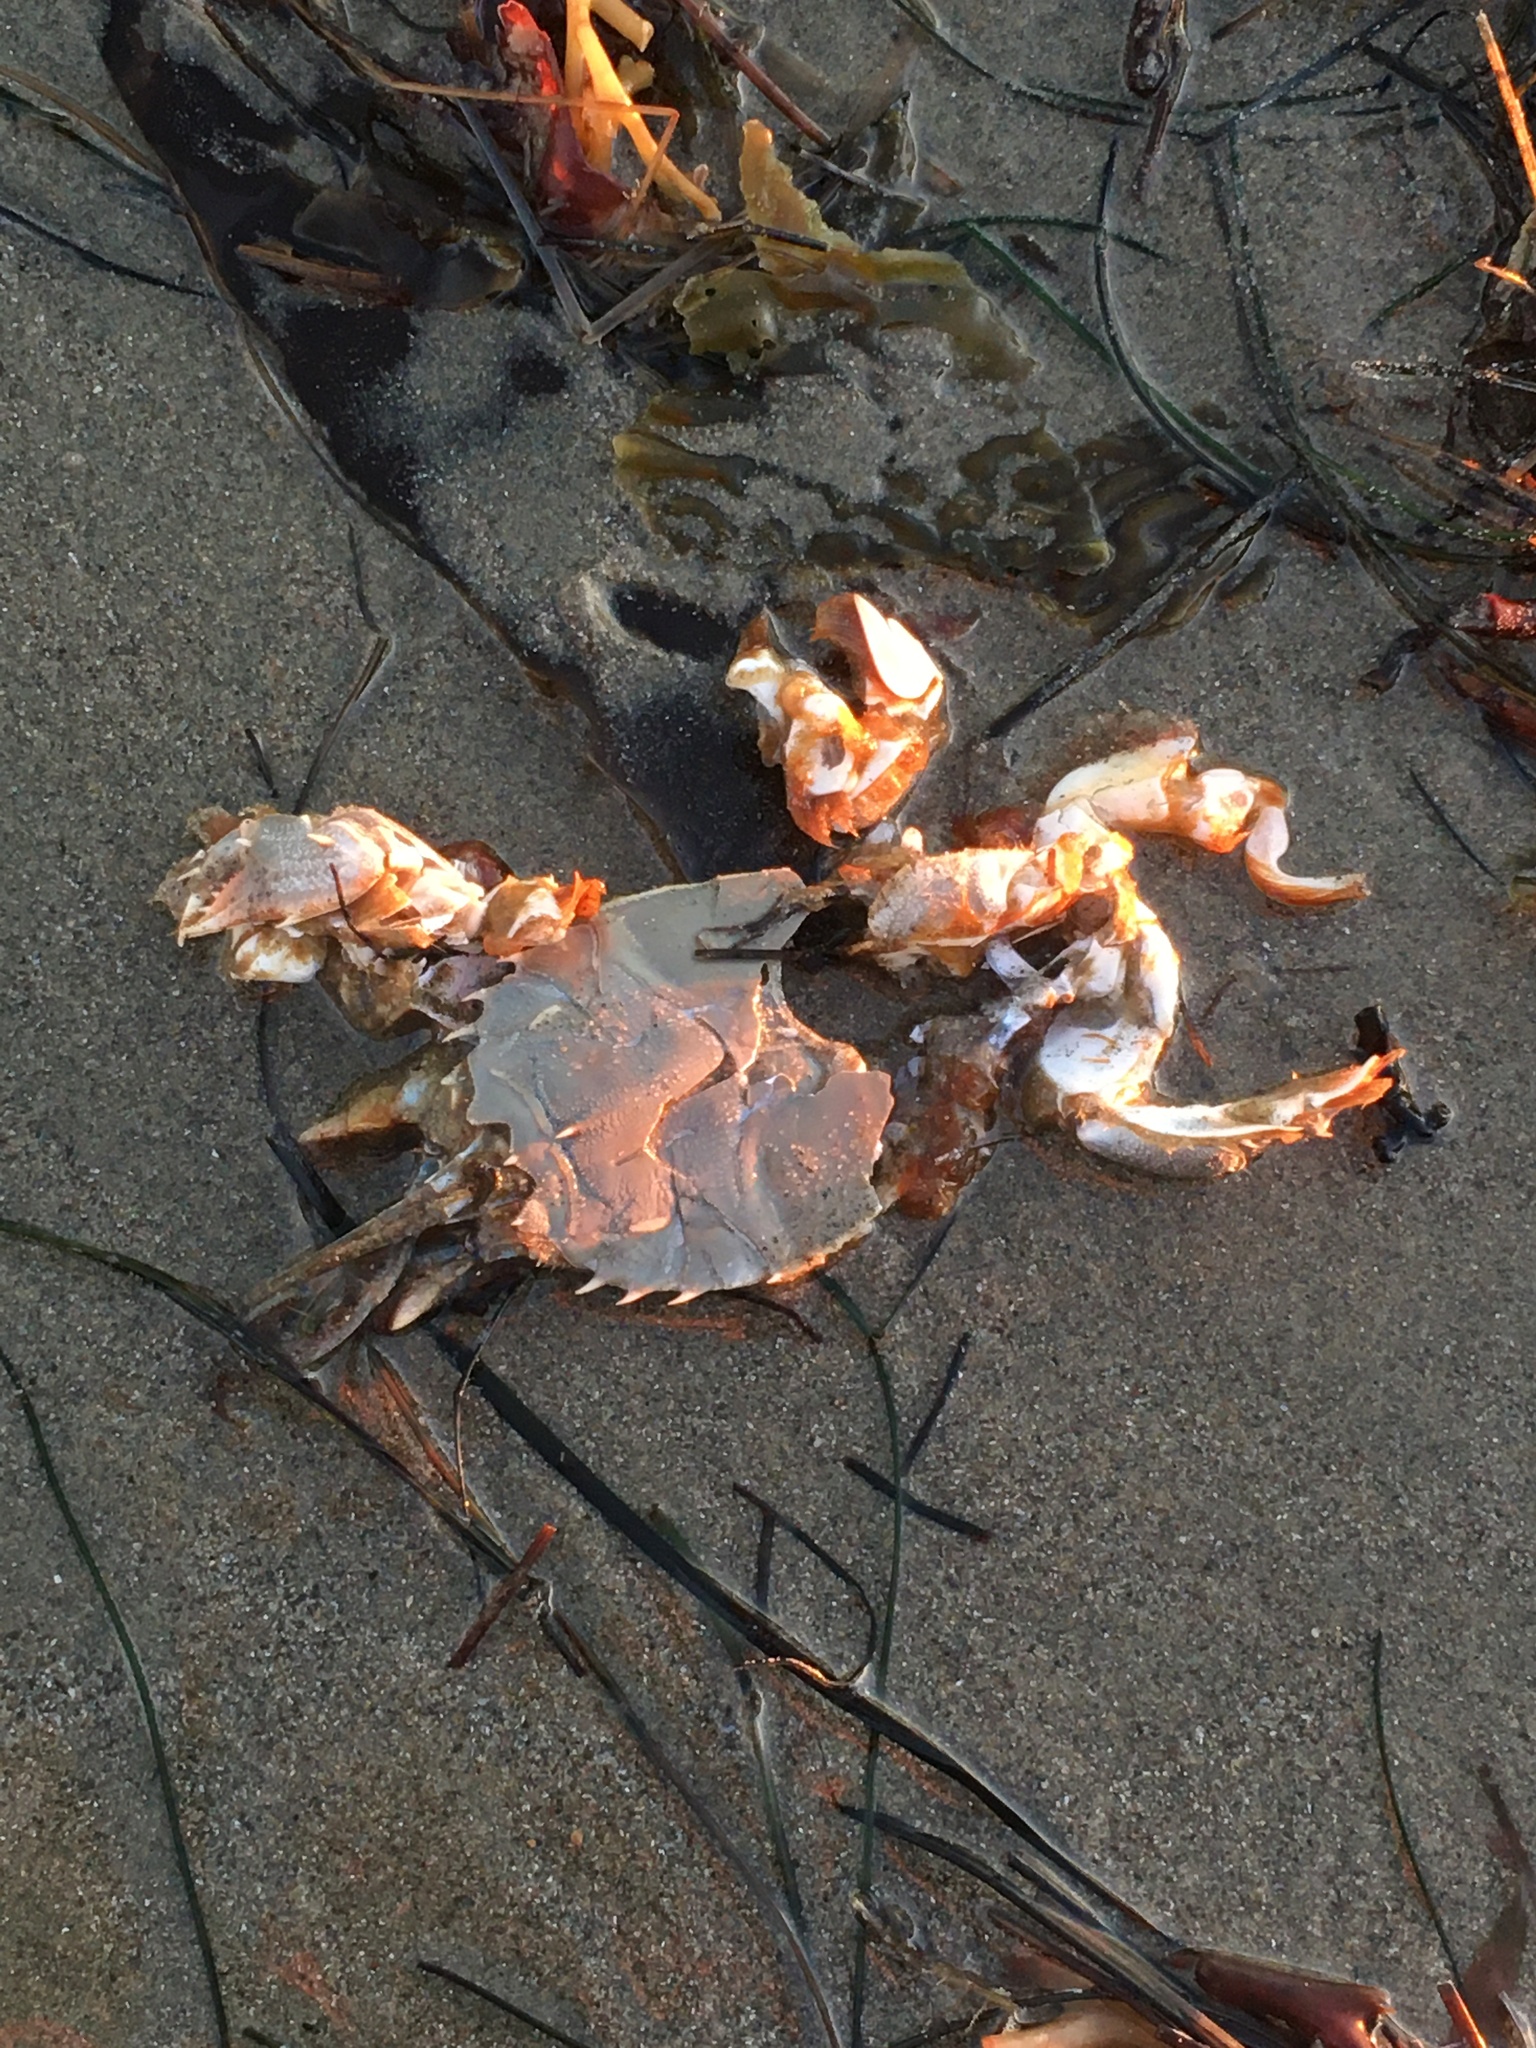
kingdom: Animalia
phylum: Arthropoda
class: Malacostraca
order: Decapoda
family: Blepharipodidae
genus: Blepharipoda
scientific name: Blepharipoda occidentalis
